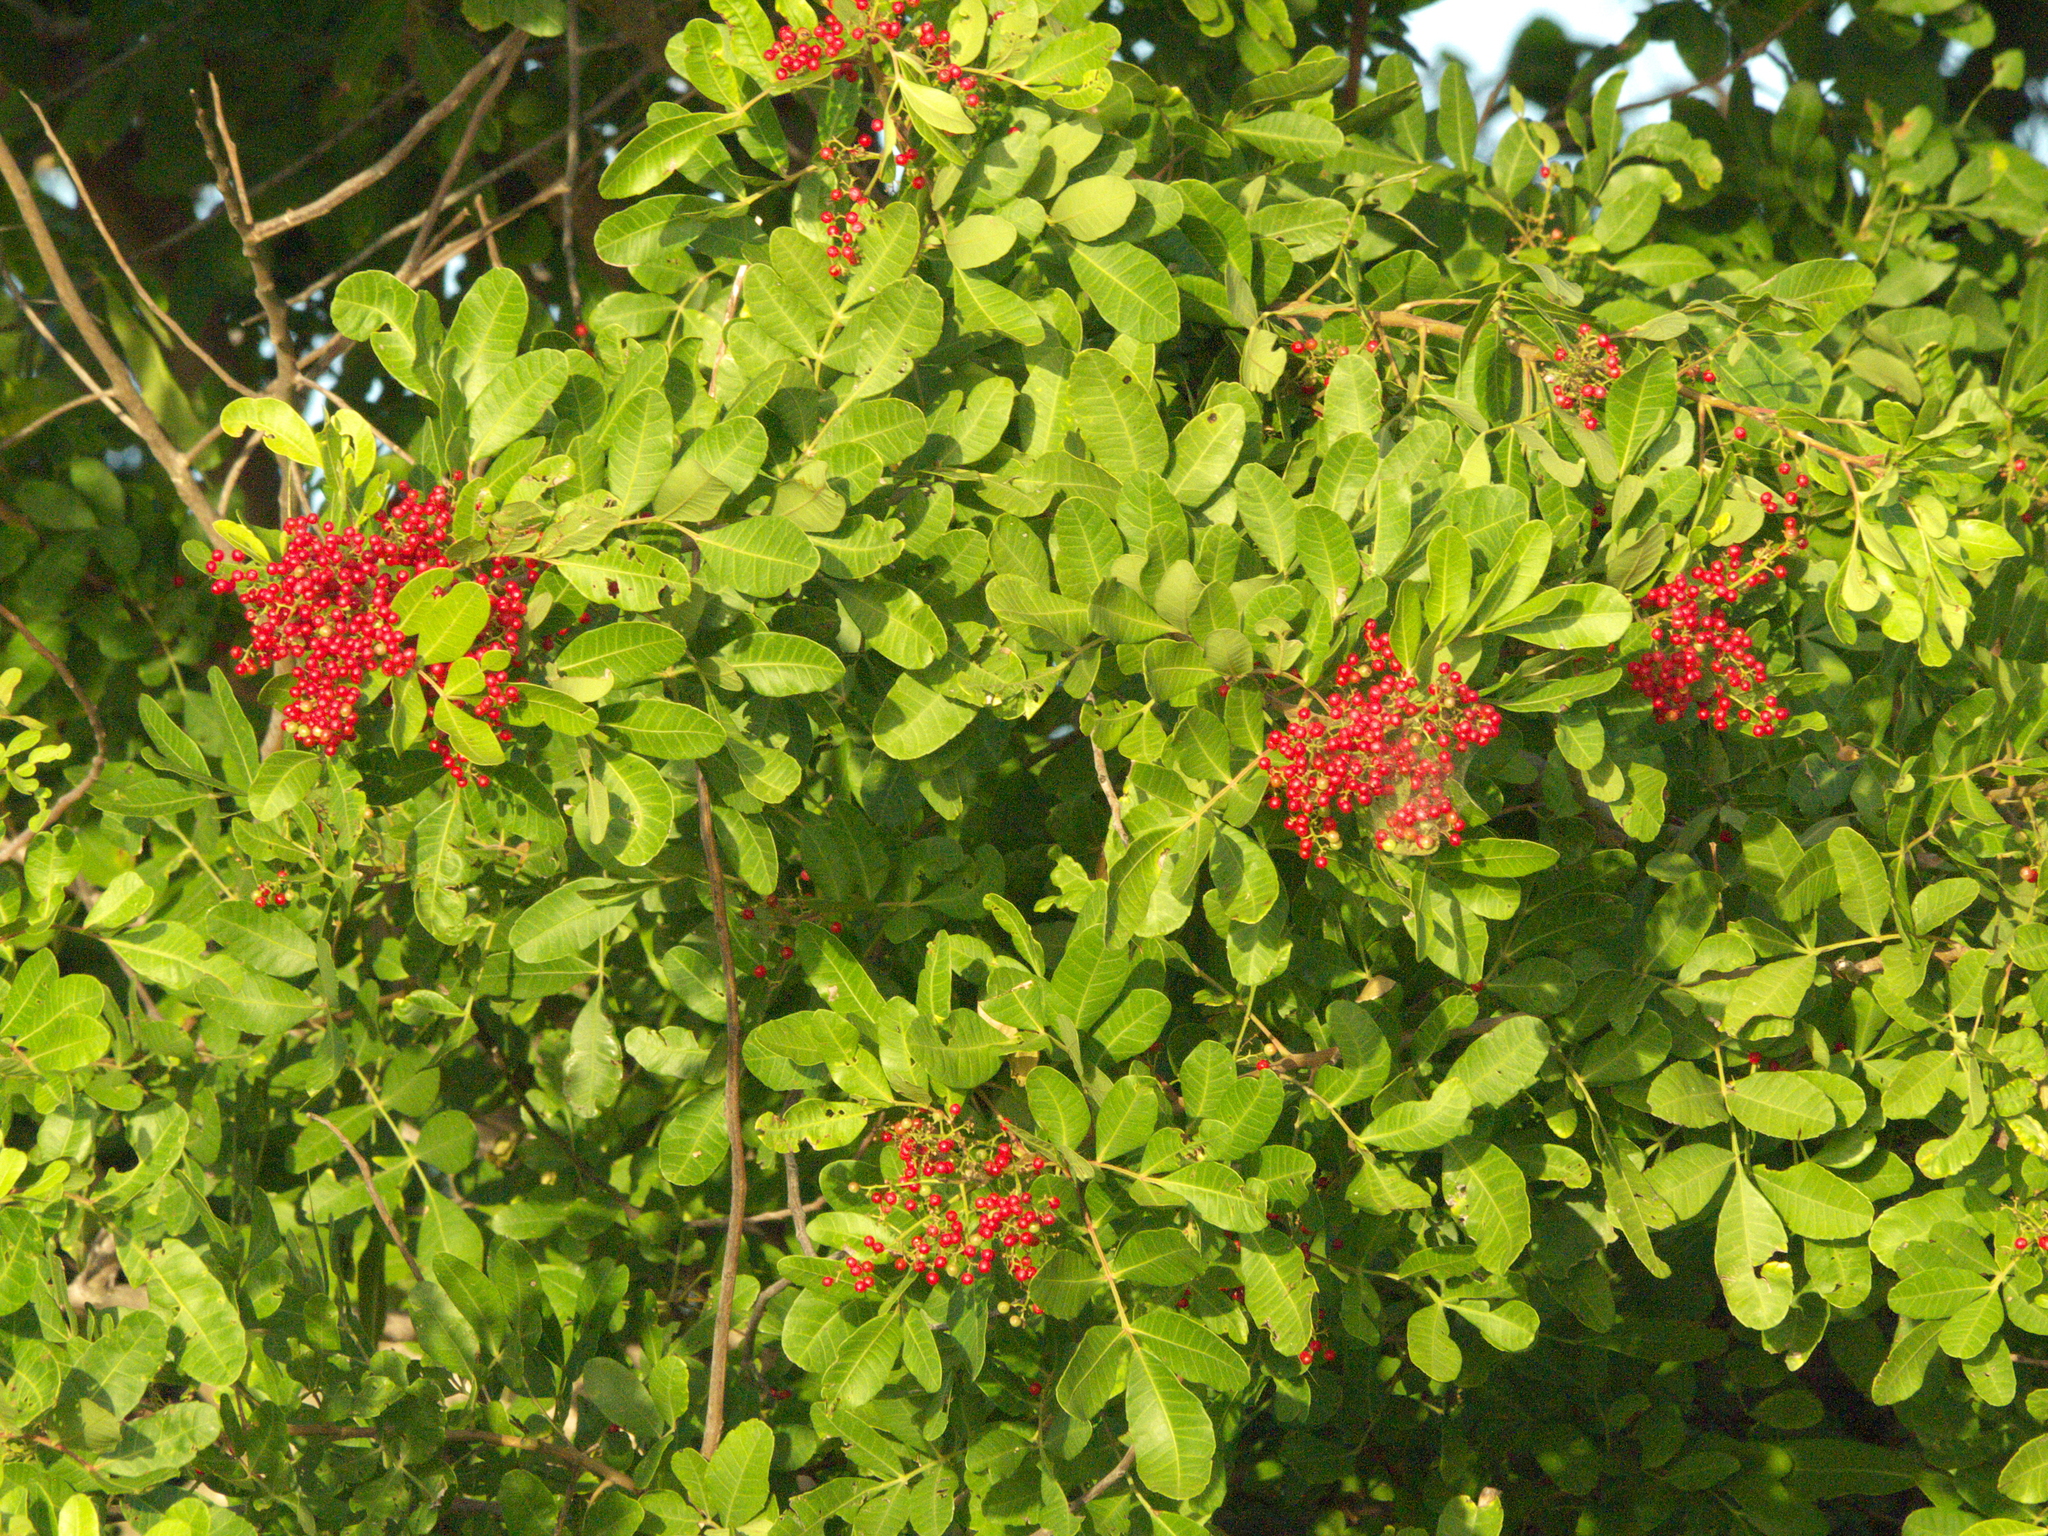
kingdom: Plantae
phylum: Tracheophyta
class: Magnoliopsida
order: Sapindales
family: Anacardiaceae
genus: Schinus
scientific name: Schinus terebinthifolia
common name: Brazilian peppertree
